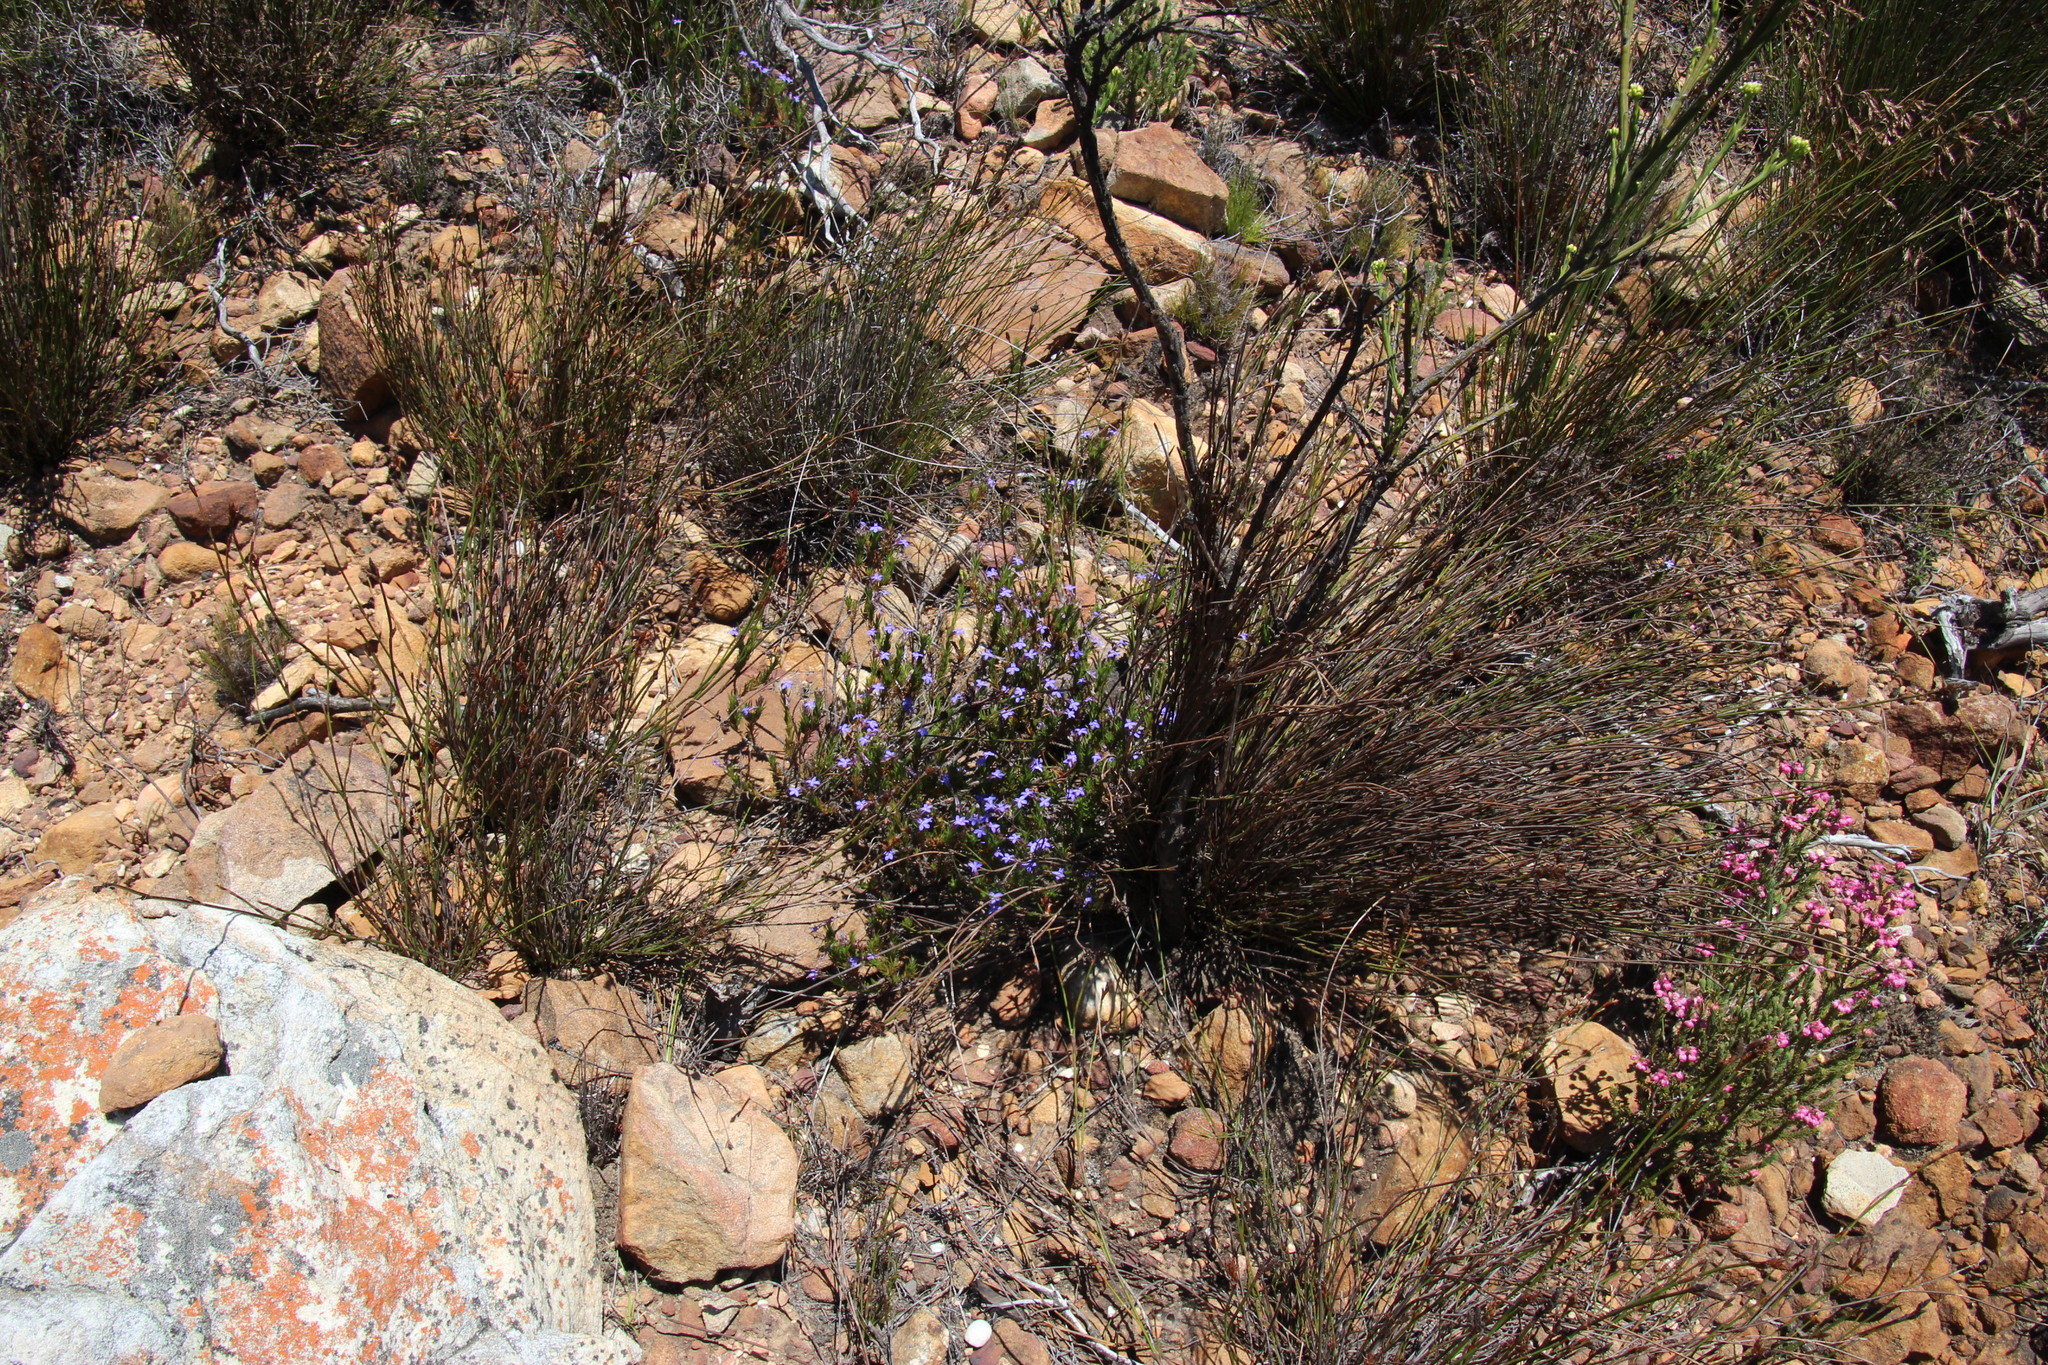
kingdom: Plantae
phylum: Tracheophyta
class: Magnoliopsida
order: Asterales
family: Campanulaceae
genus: Lobelia
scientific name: Lobelia pinifolia
